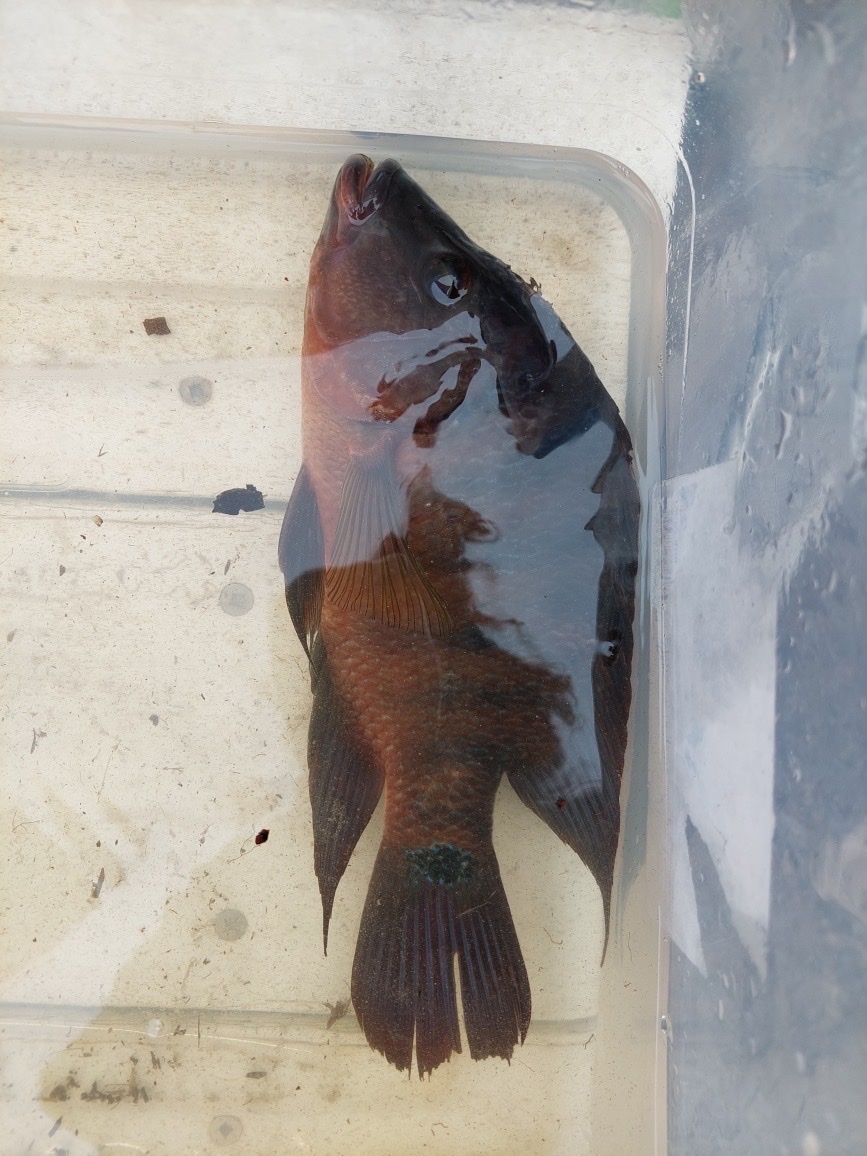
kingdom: Animalia
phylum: Chordata
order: Perciformes
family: Cichlidae
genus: Mayaheros
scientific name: Mayaheros urophthalmus
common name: Mayan cichlid
